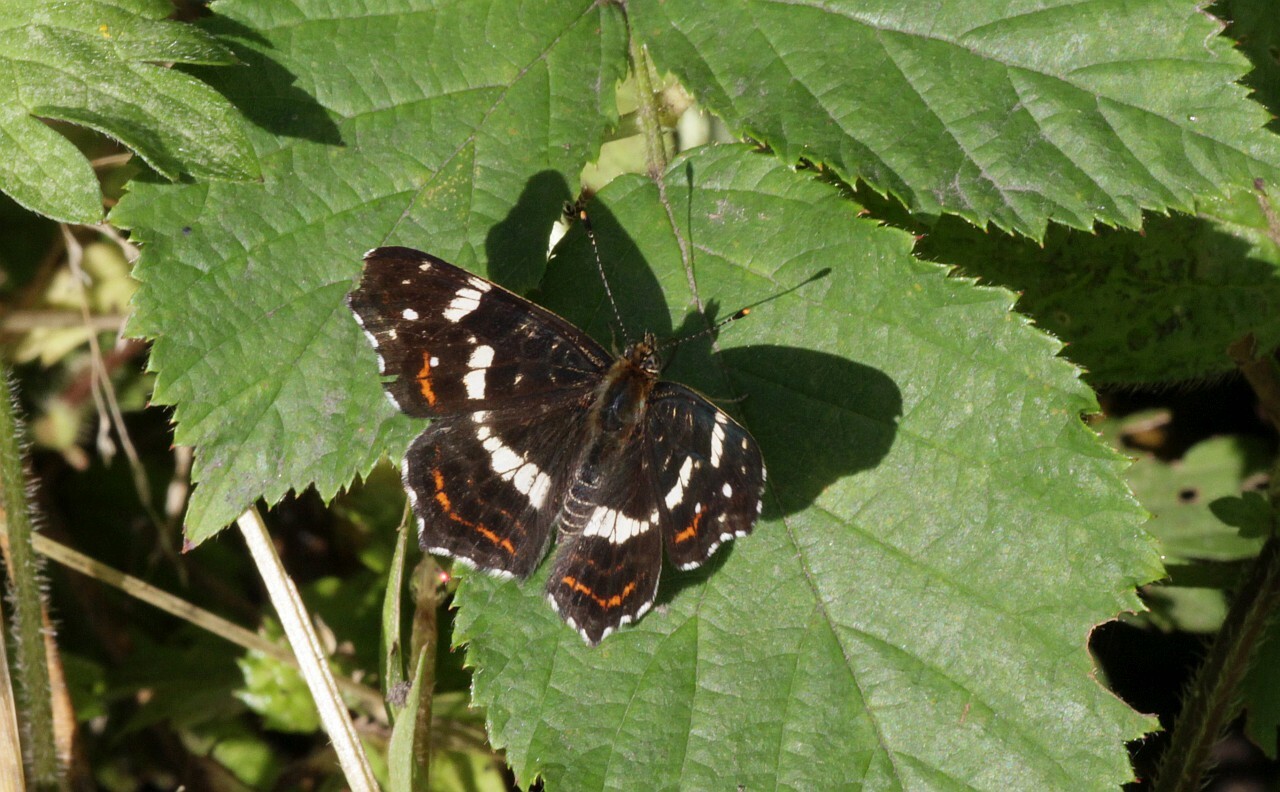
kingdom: Animalia
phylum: Arthropoda
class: Insecta
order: Lepidoptera
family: Nymphalidae
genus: Araschnia
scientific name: Araschnia levana
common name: Map butterfly
